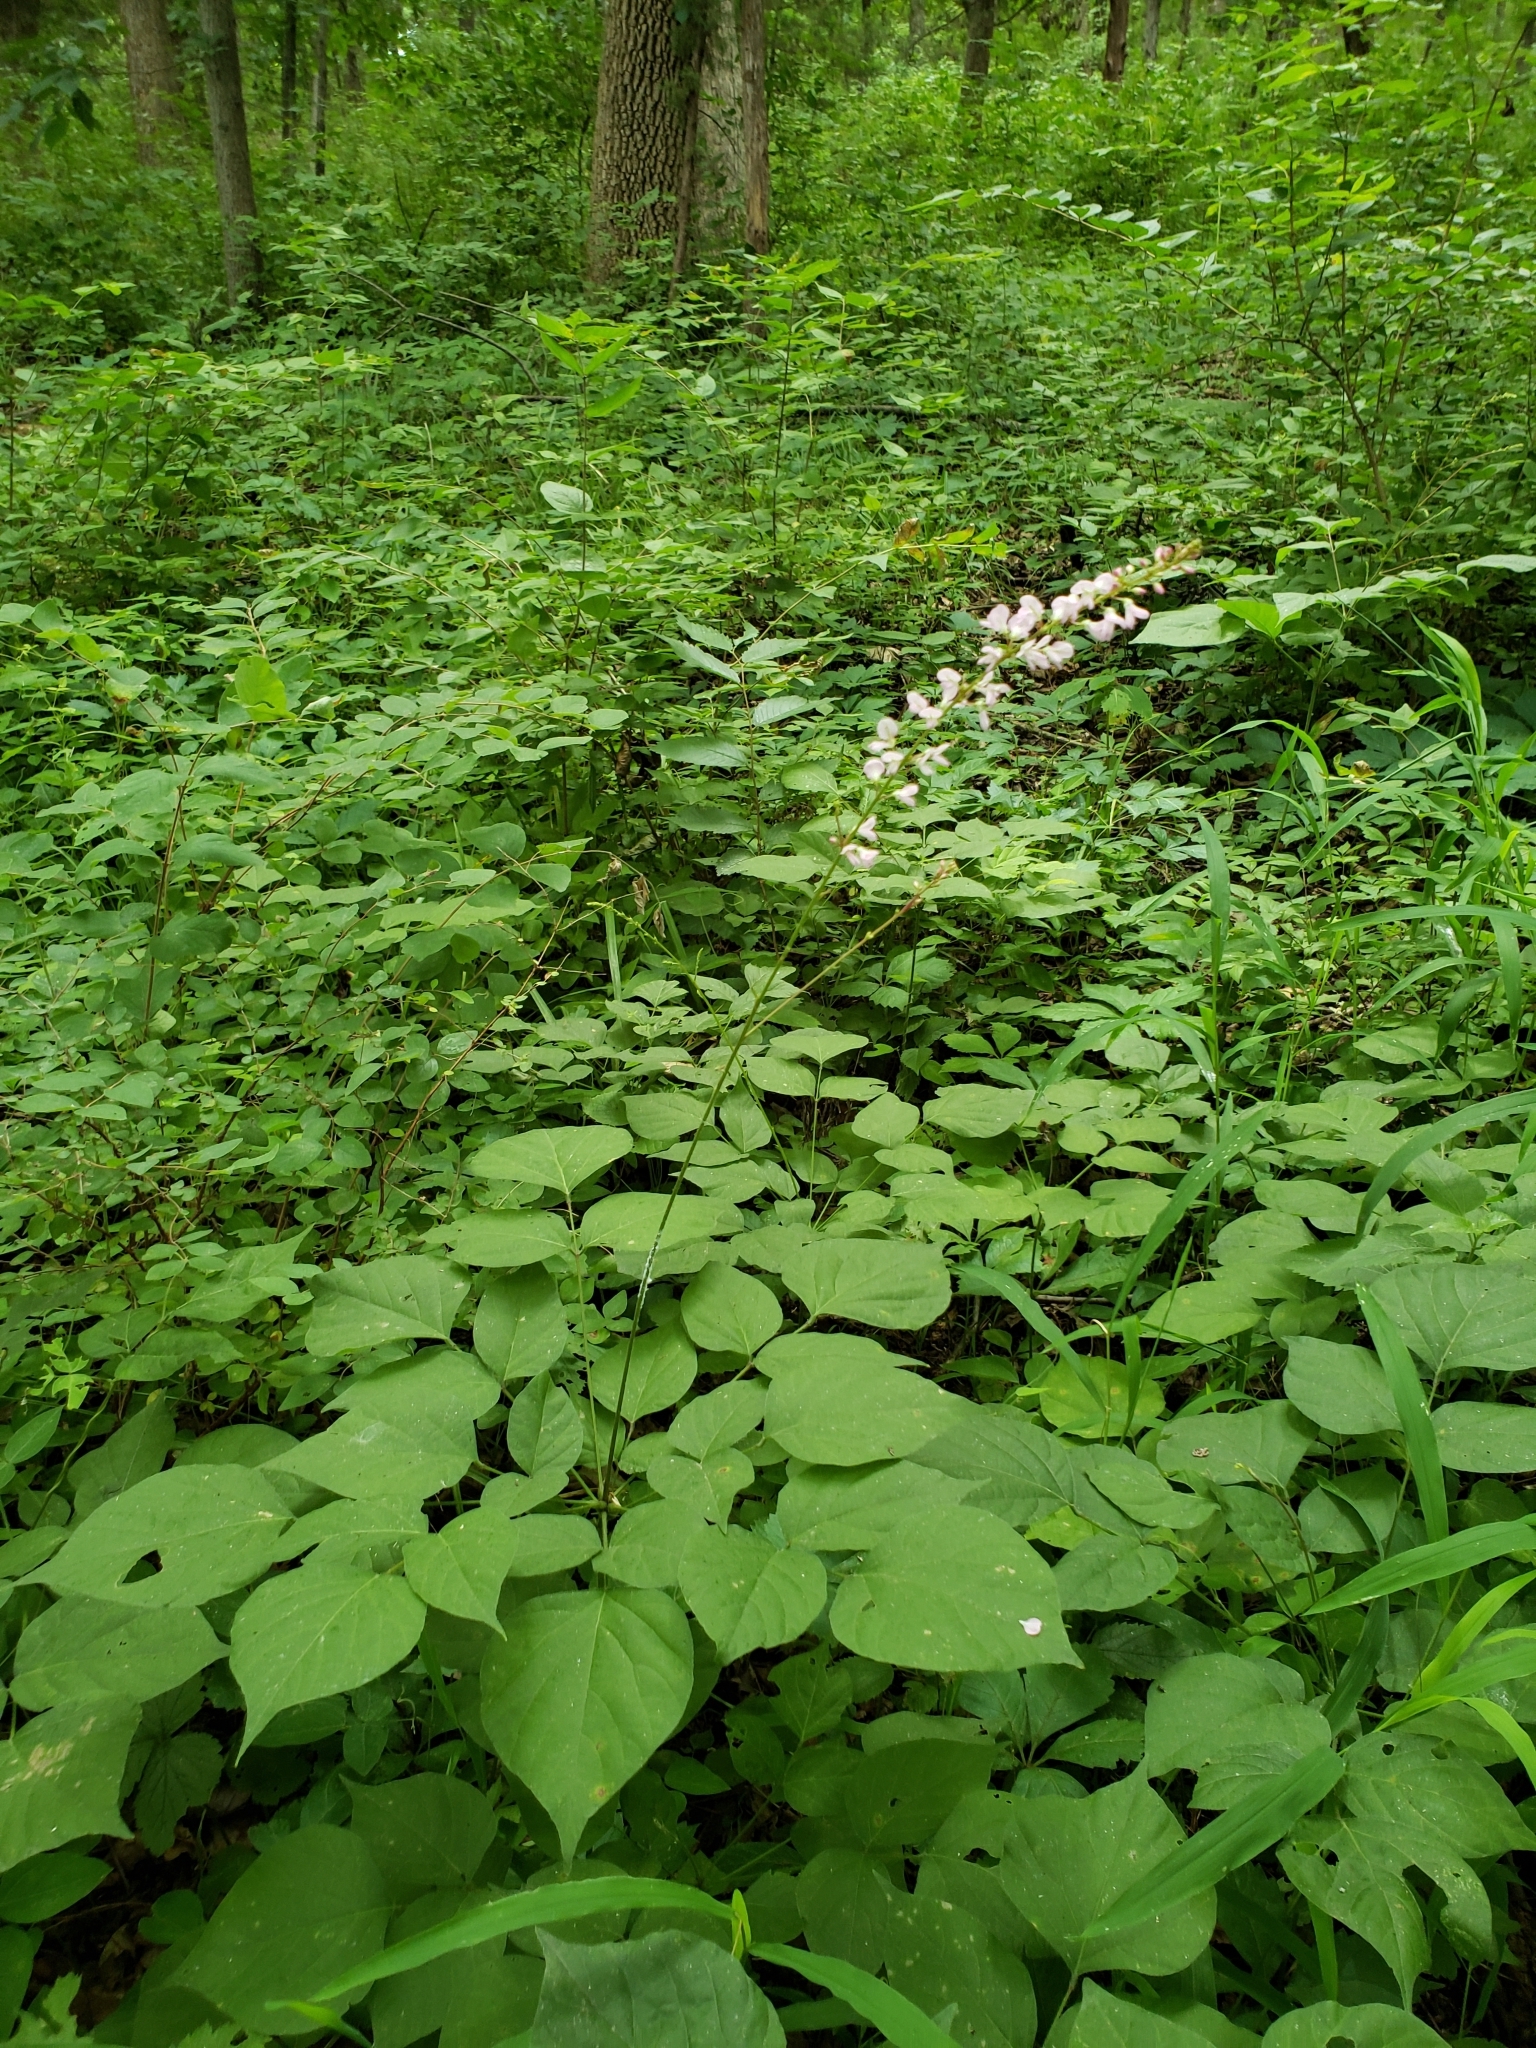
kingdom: Plantae
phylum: Tracheophyta
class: Magnoliopsida
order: Fabales
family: Fabaceae
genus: Hylodesmum
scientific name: Hylodesmum glutinosum
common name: Clustered-leaved tick-trefoil
